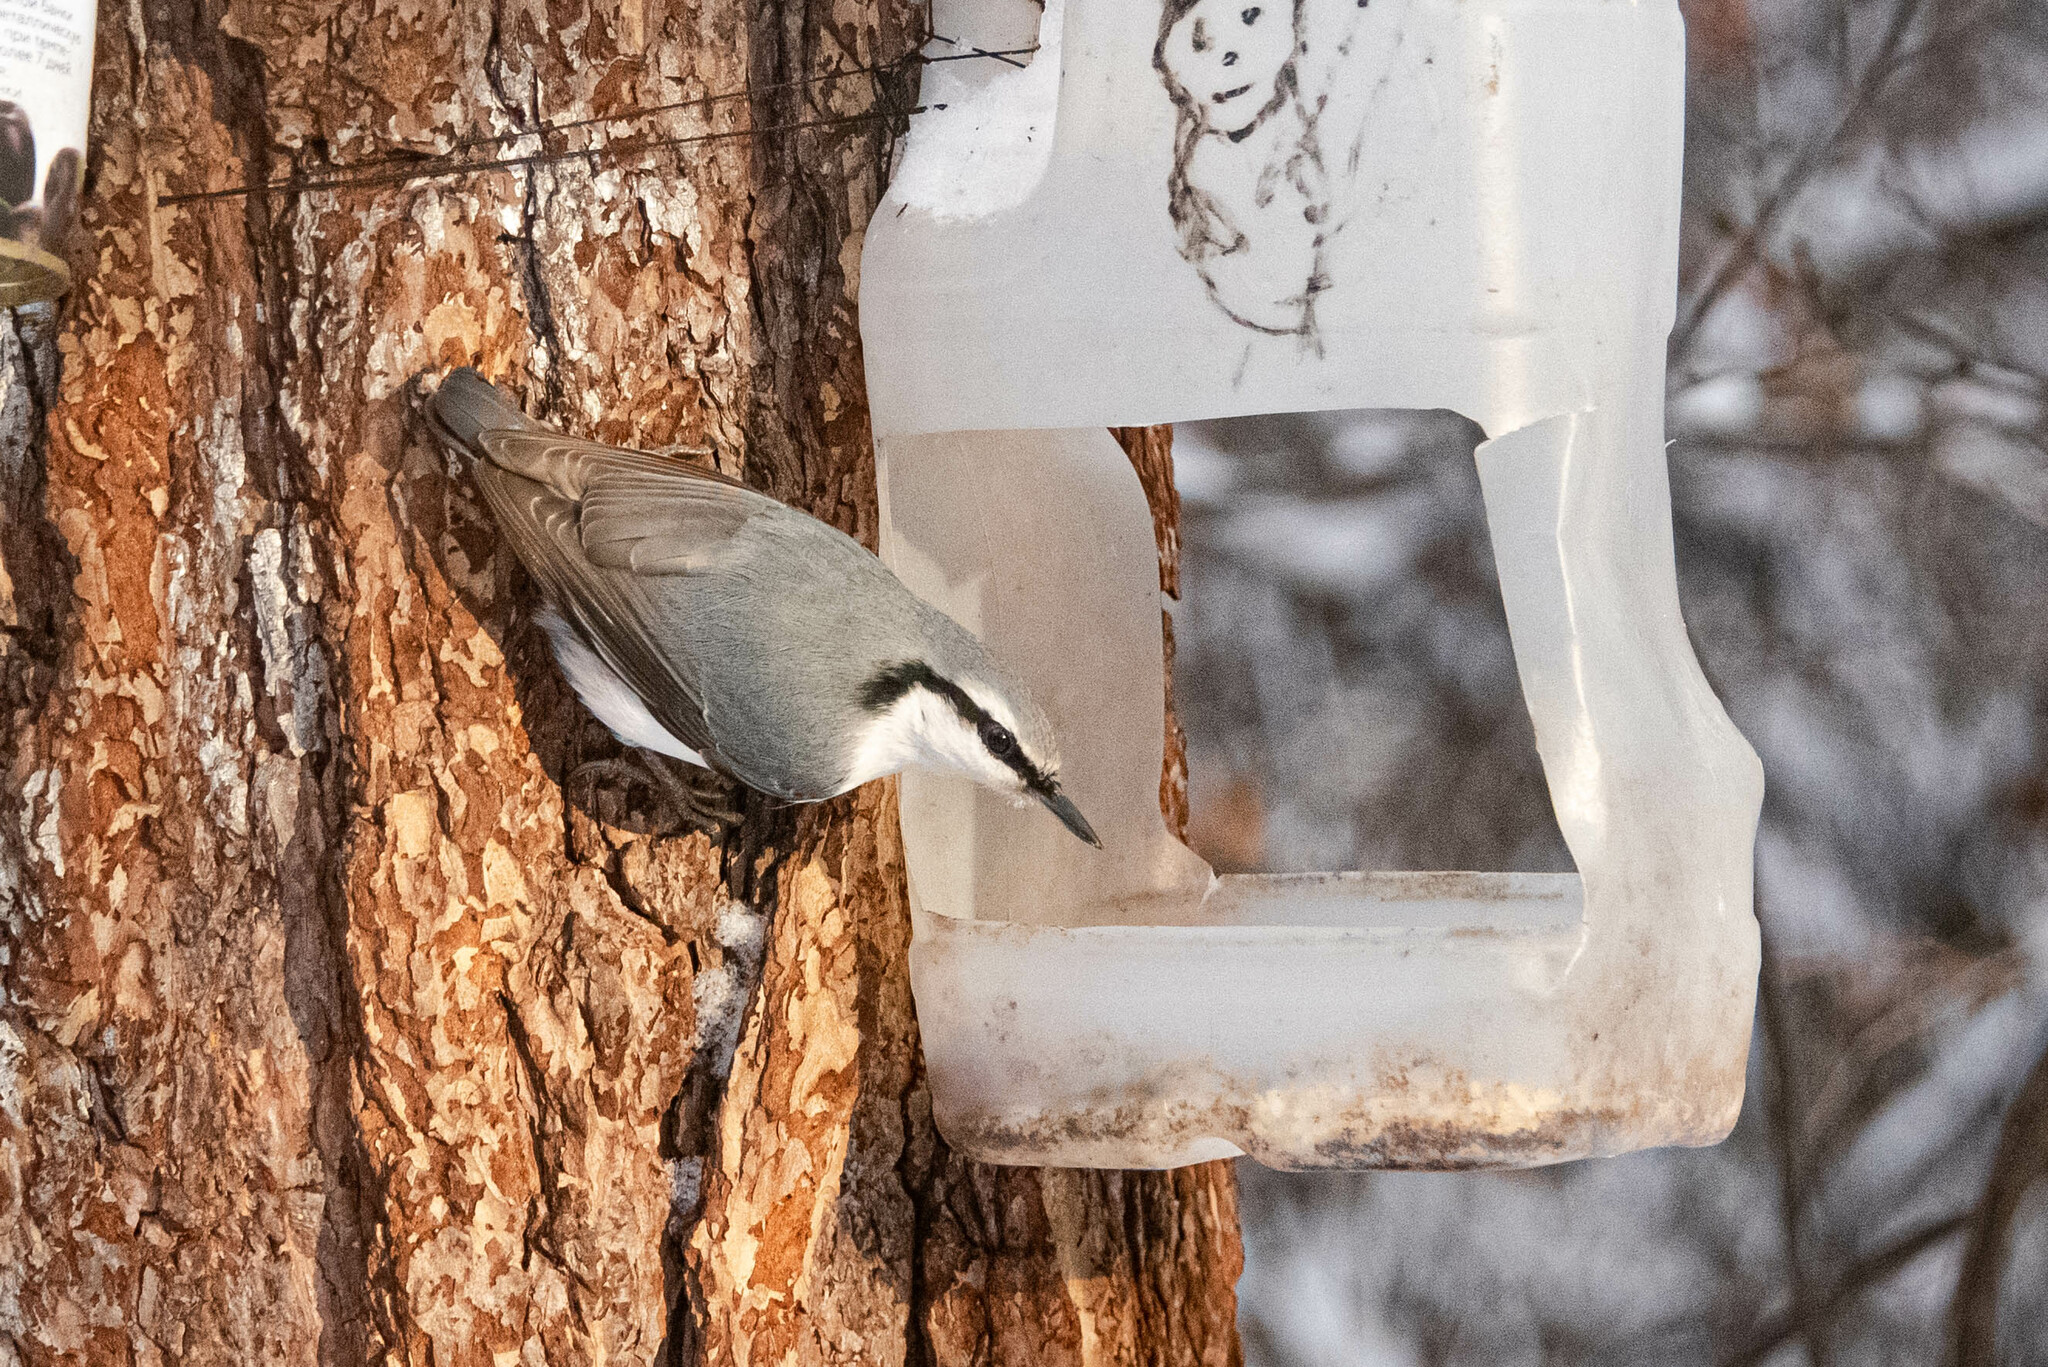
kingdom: Animalia
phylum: Chordata
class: Aves
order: Passeriformes
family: Sittidae
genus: Sitta
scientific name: Sitta europaea
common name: Eurasian nuthatch
